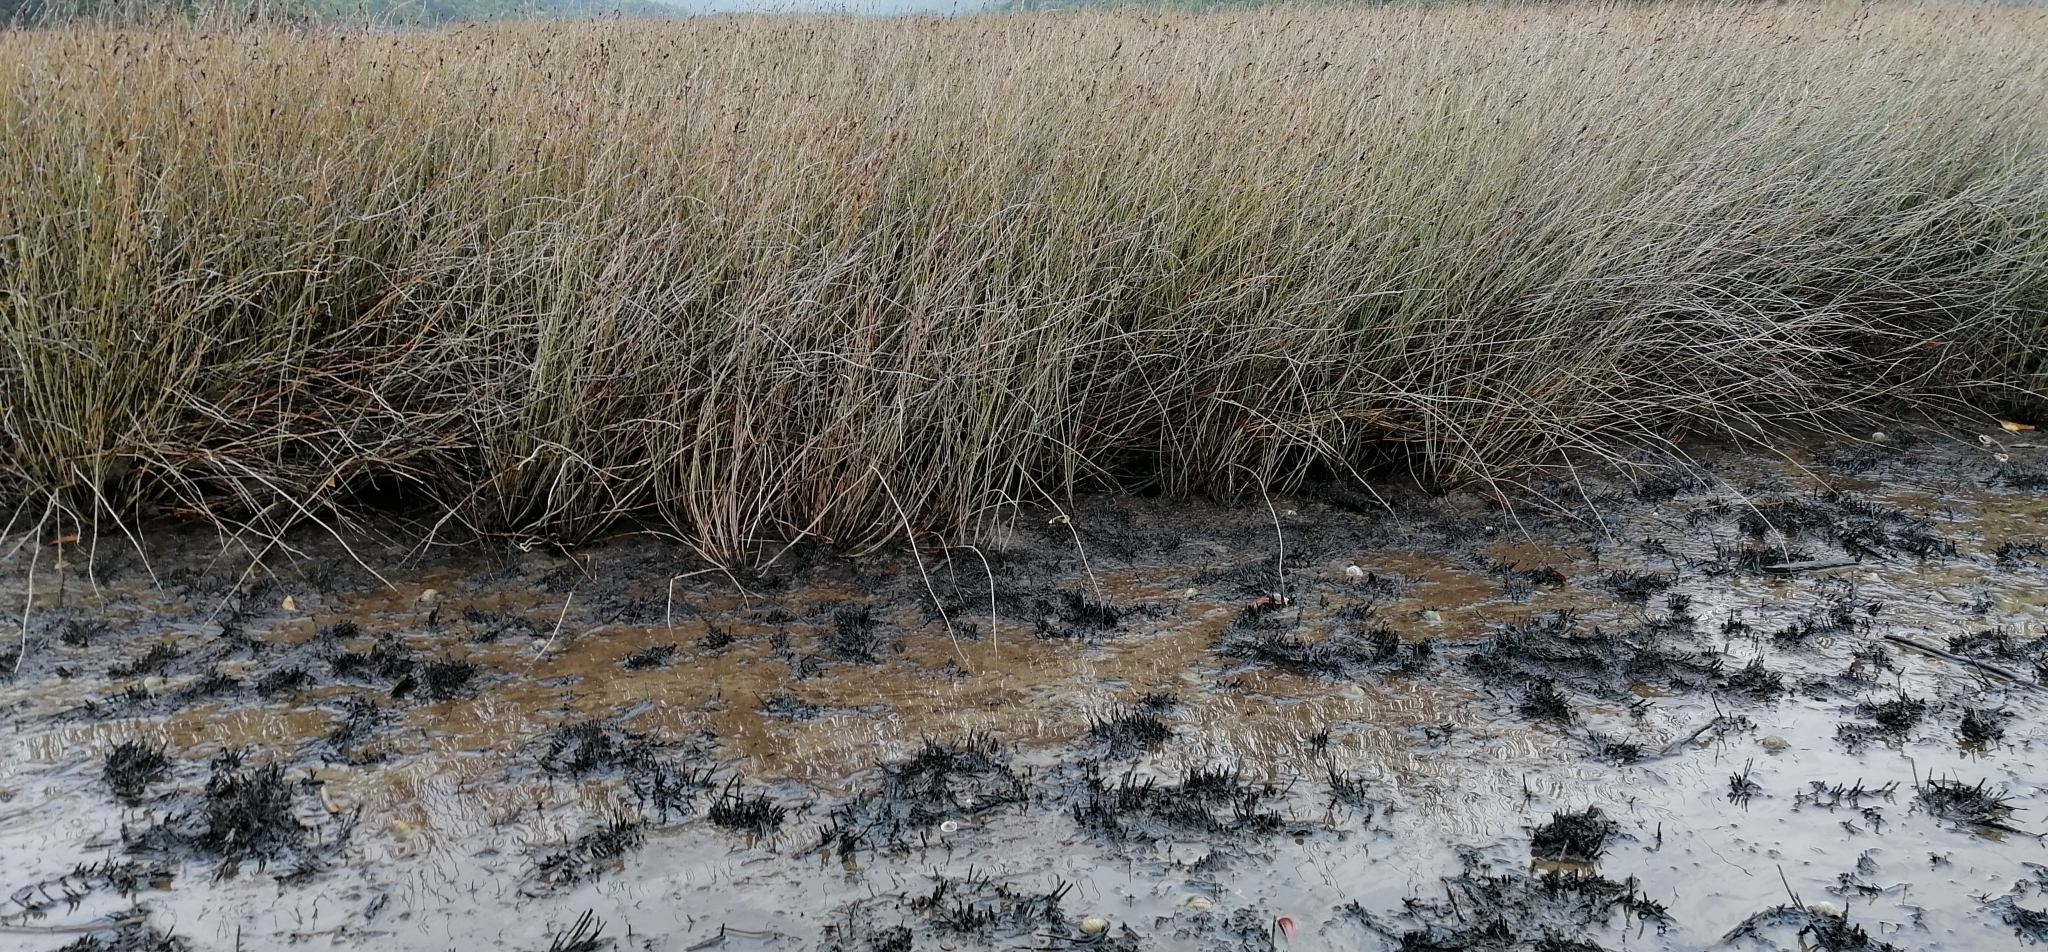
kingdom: Plantae
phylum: Tracheophyta
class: Liliopsida
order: Poales
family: Restionaceae
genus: Apodasmia
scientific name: Apodasmia similis
